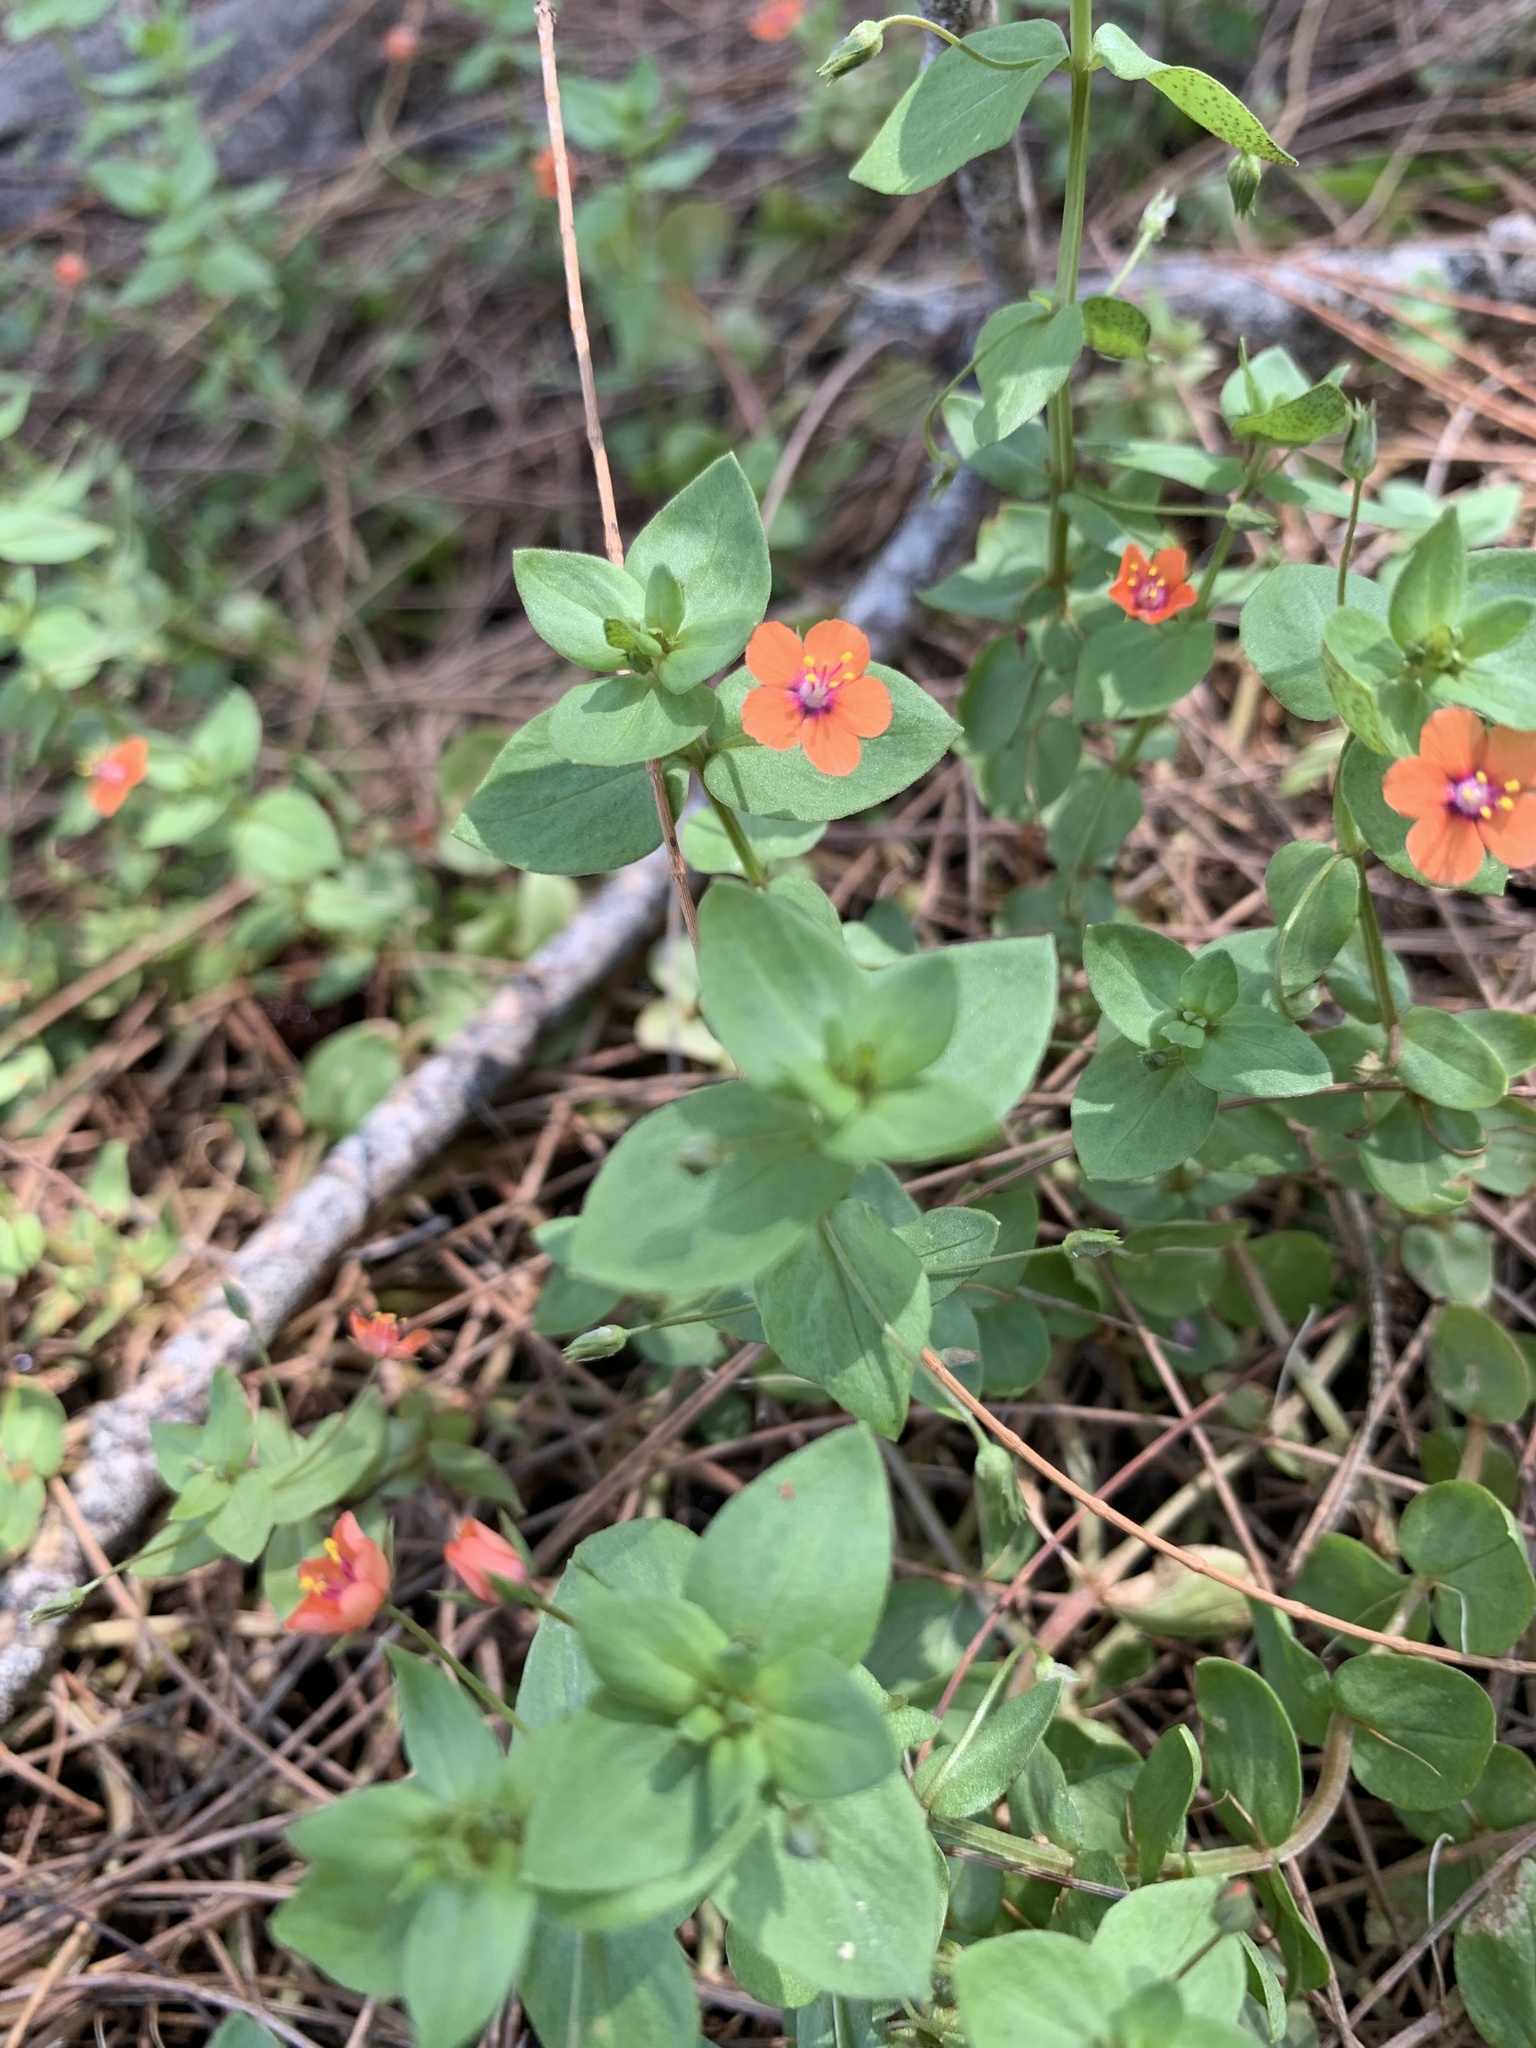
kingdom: Plantae
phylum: Tracheophyta
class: Magnoliopsida
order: Ericales
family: Primulaceae
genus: Lysimachia
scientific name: Lysimachia arvensis
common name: Scarlet pimpernel
